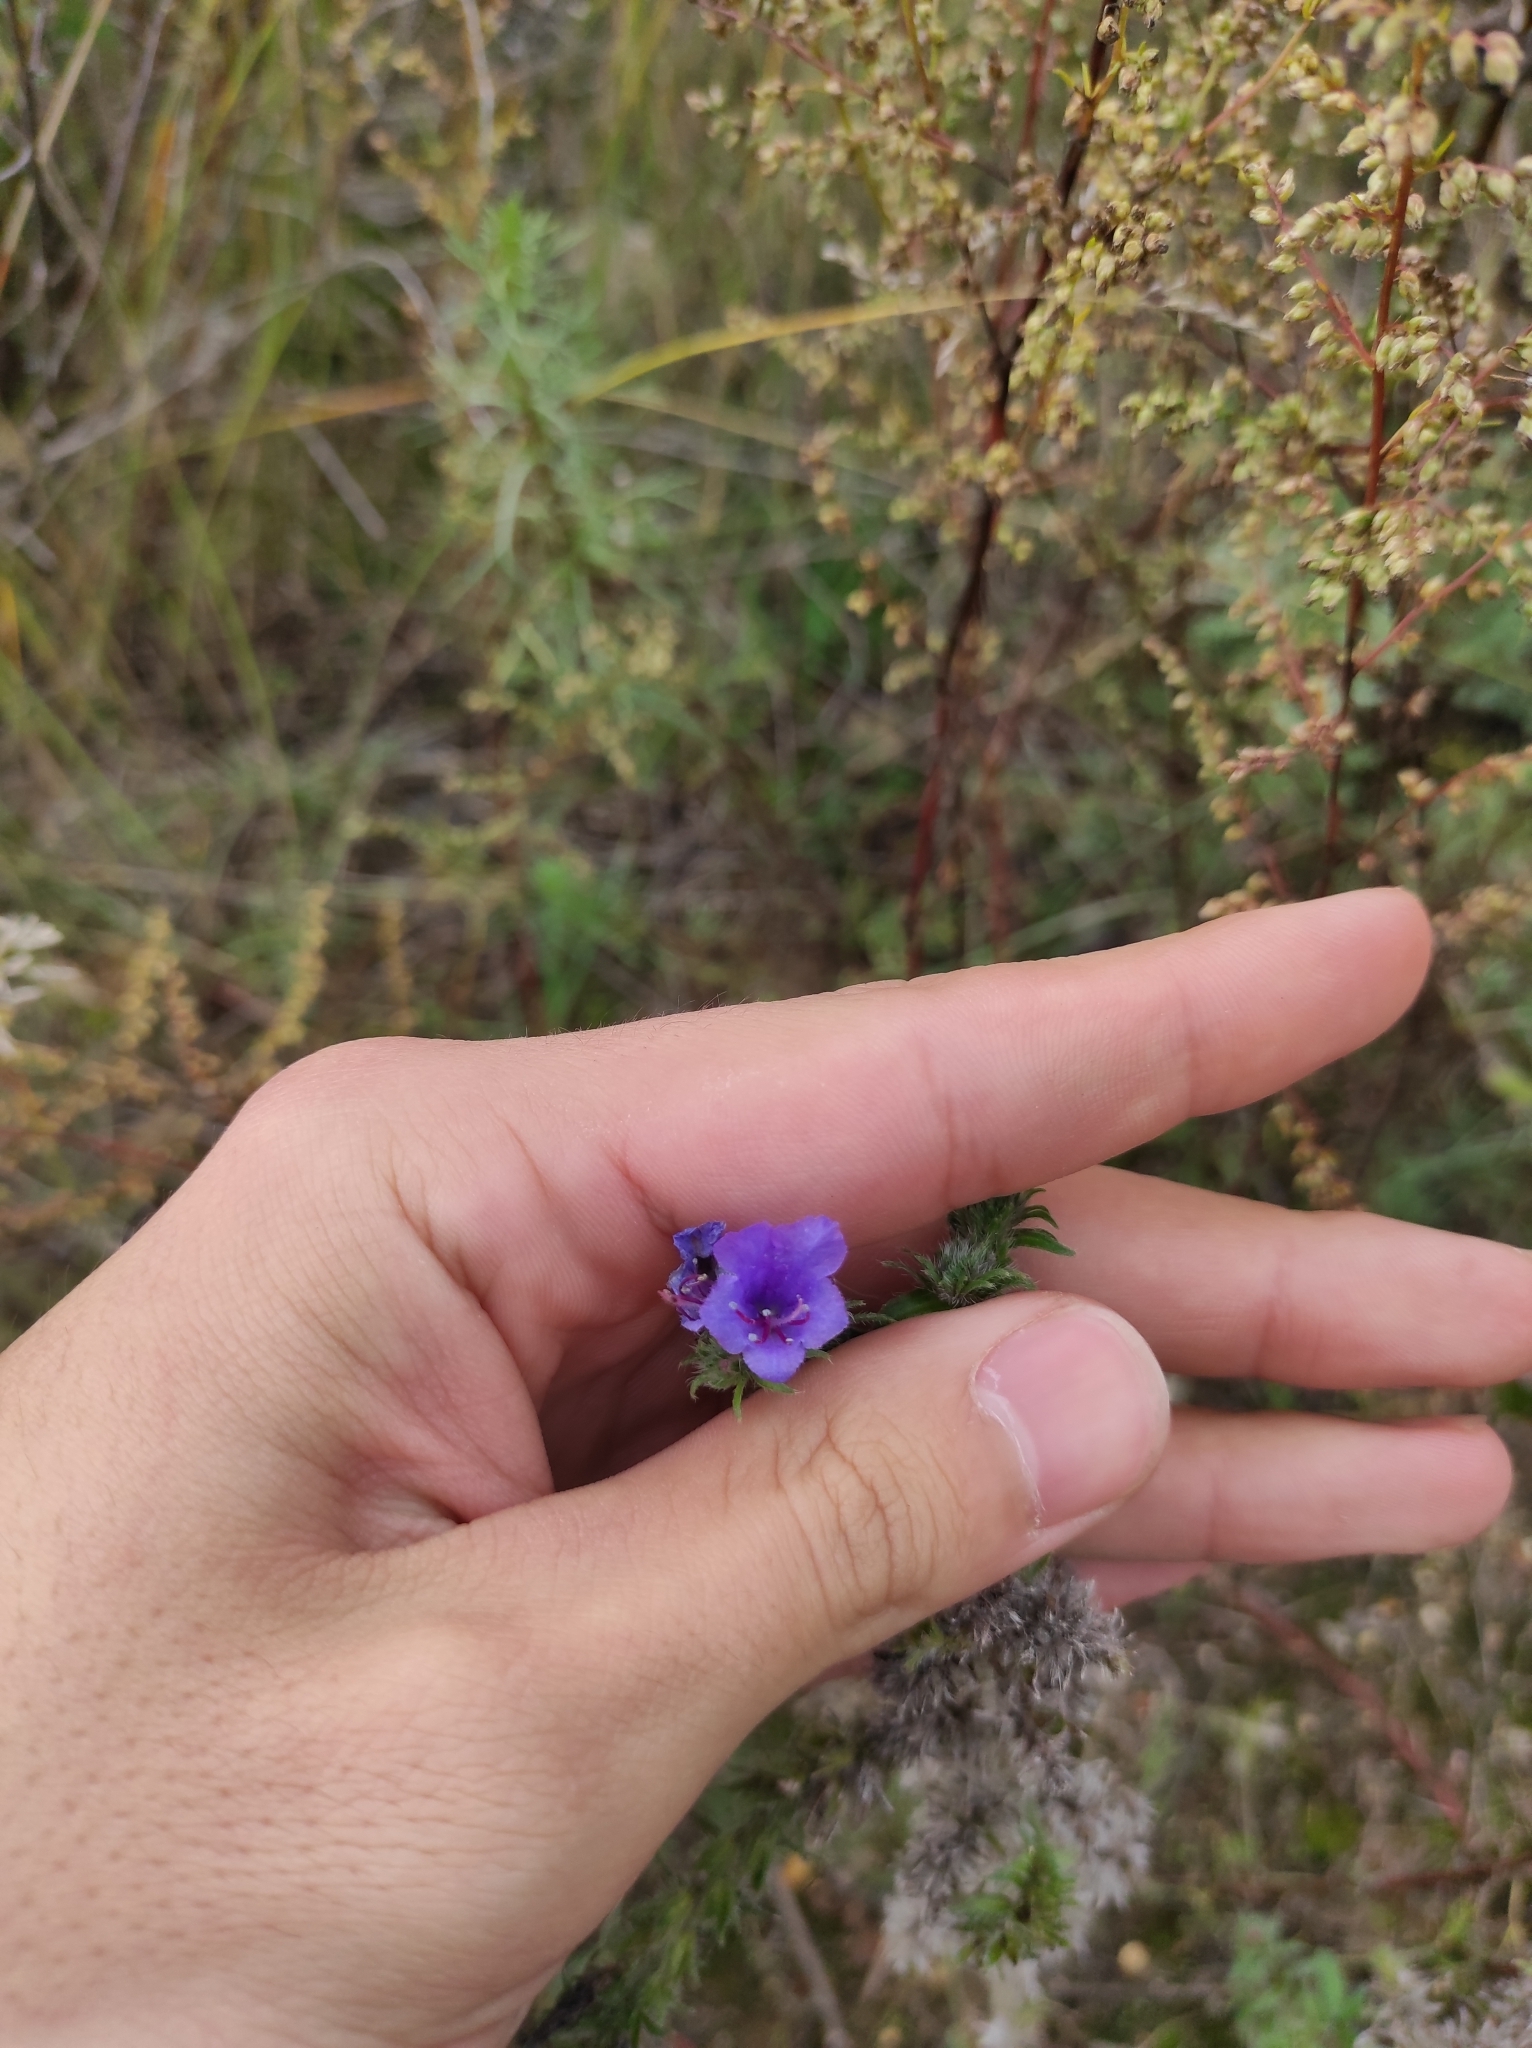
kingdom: Plantae
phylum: Tracheophyta
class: Magnoliopsida
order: Boraginales
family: Boraginaceae
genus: Echium
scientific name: Echium vulgare
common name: Common viper's bugloss
